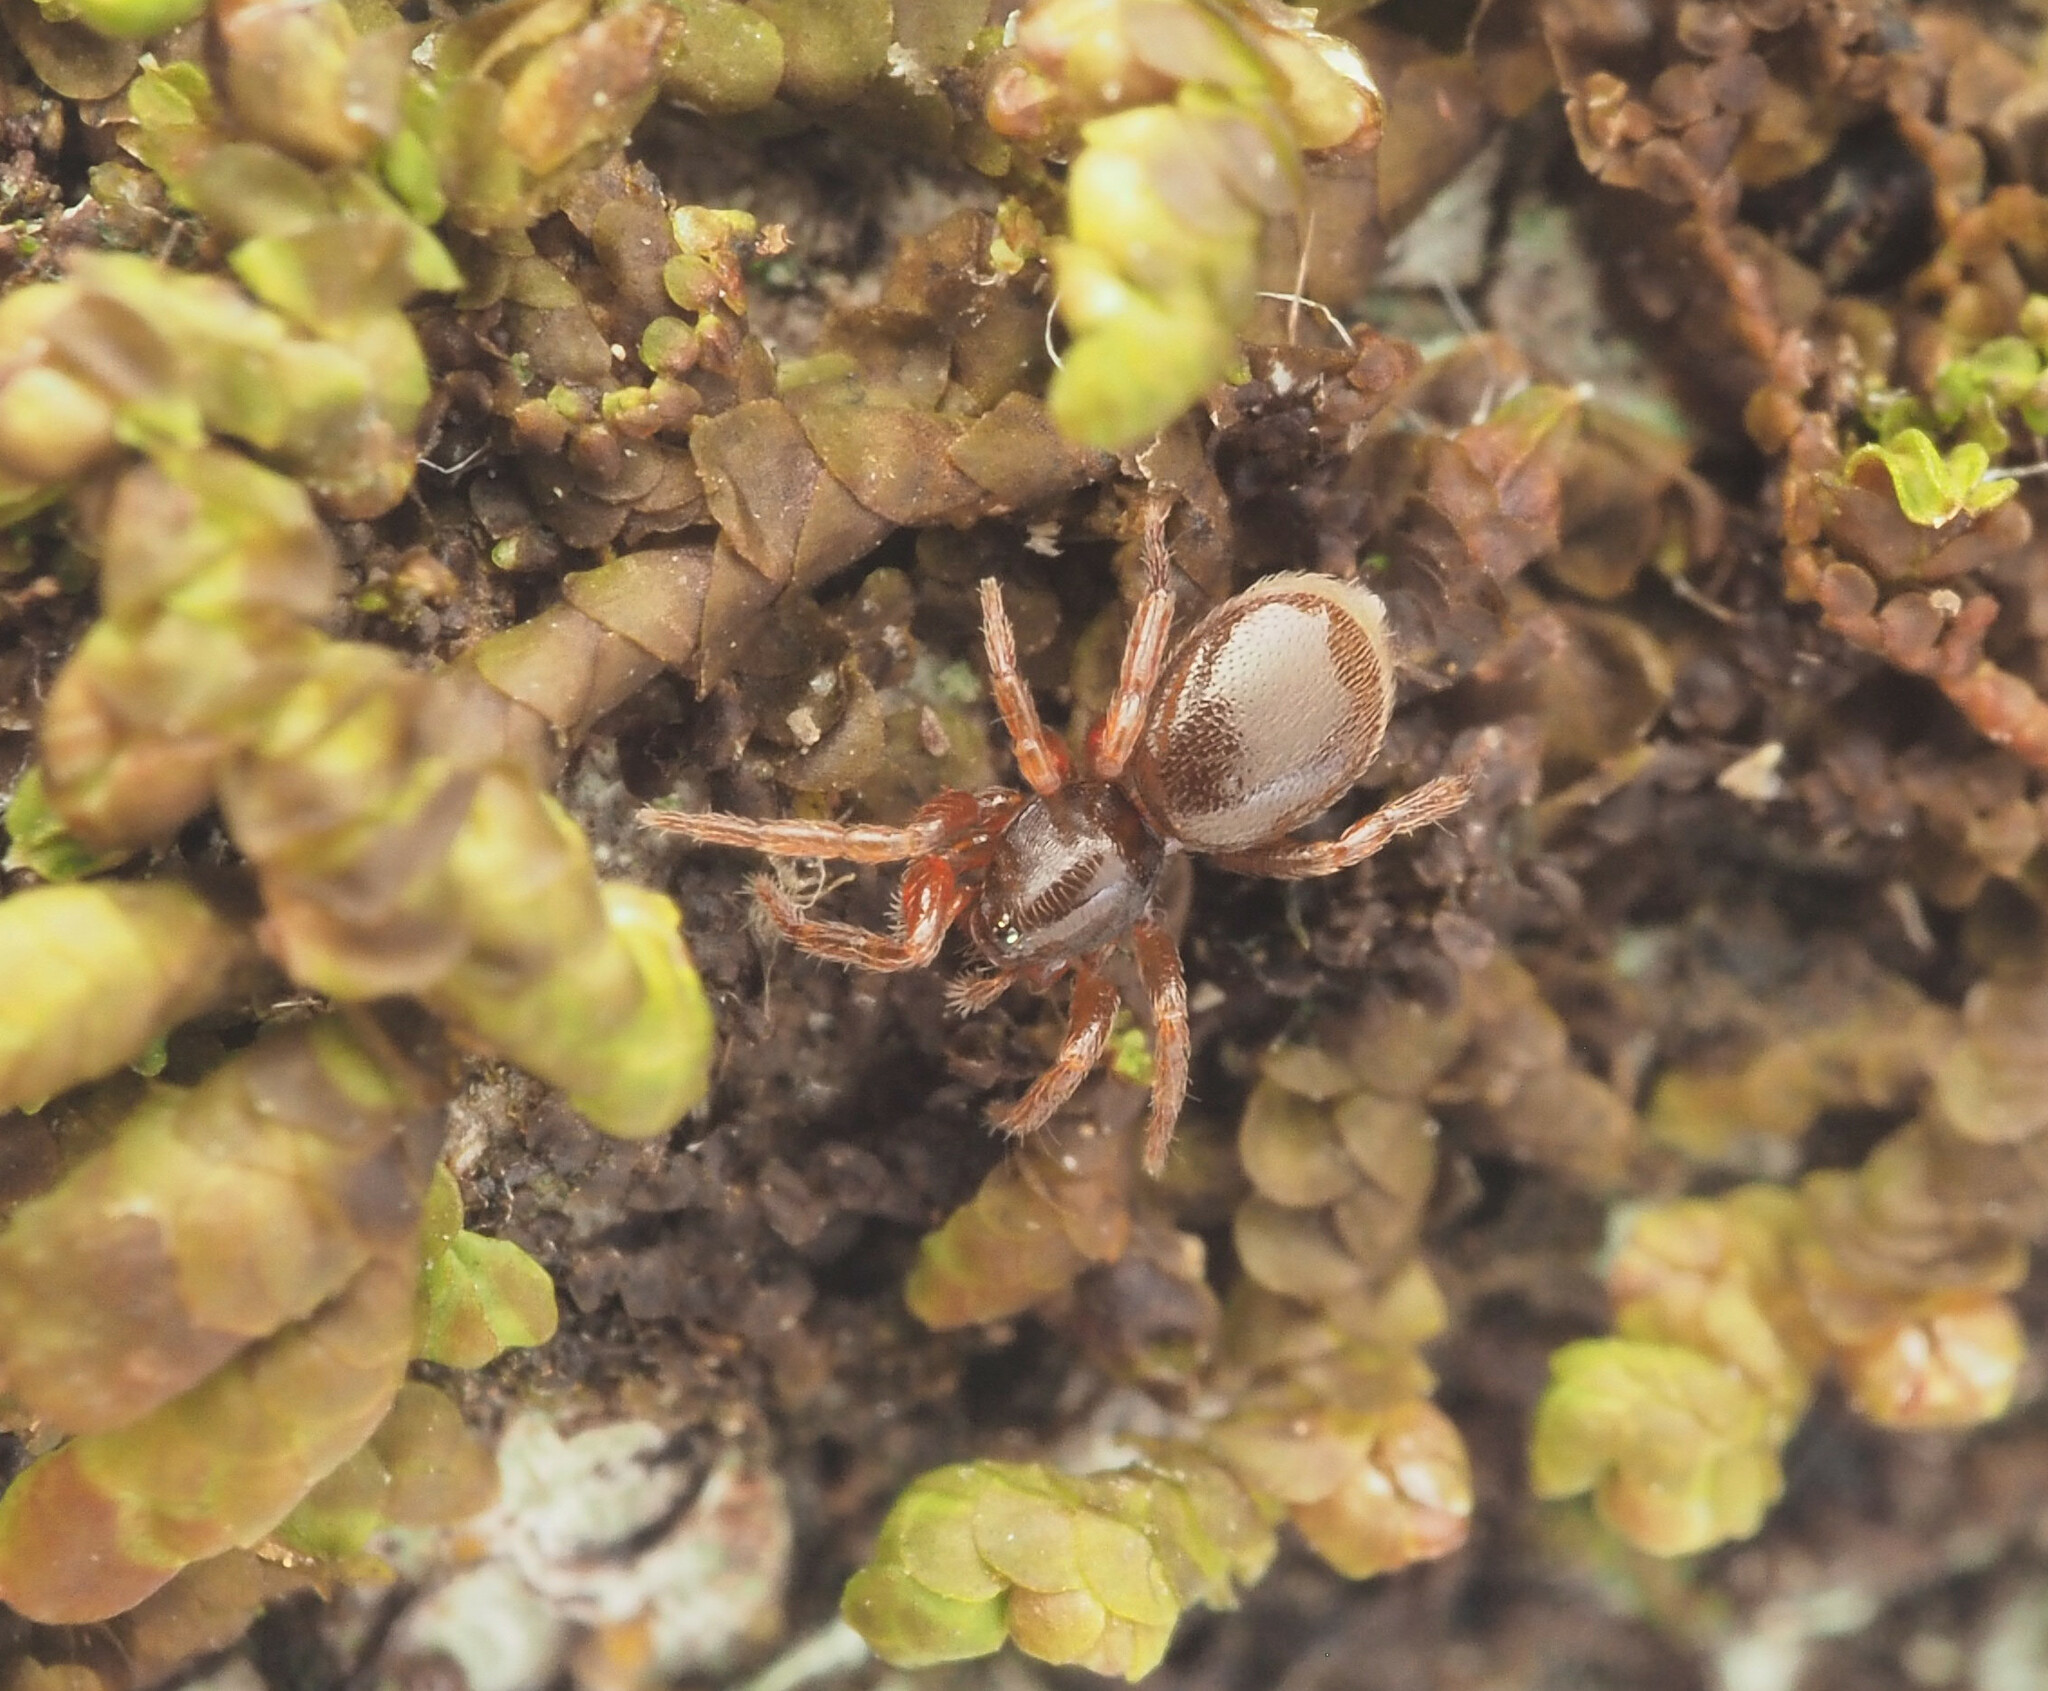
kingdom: Animalia
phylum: Arthropoda
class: Arachnida
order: Araneae
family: Oonopidae
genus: Opopaea
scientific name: Opopaea
